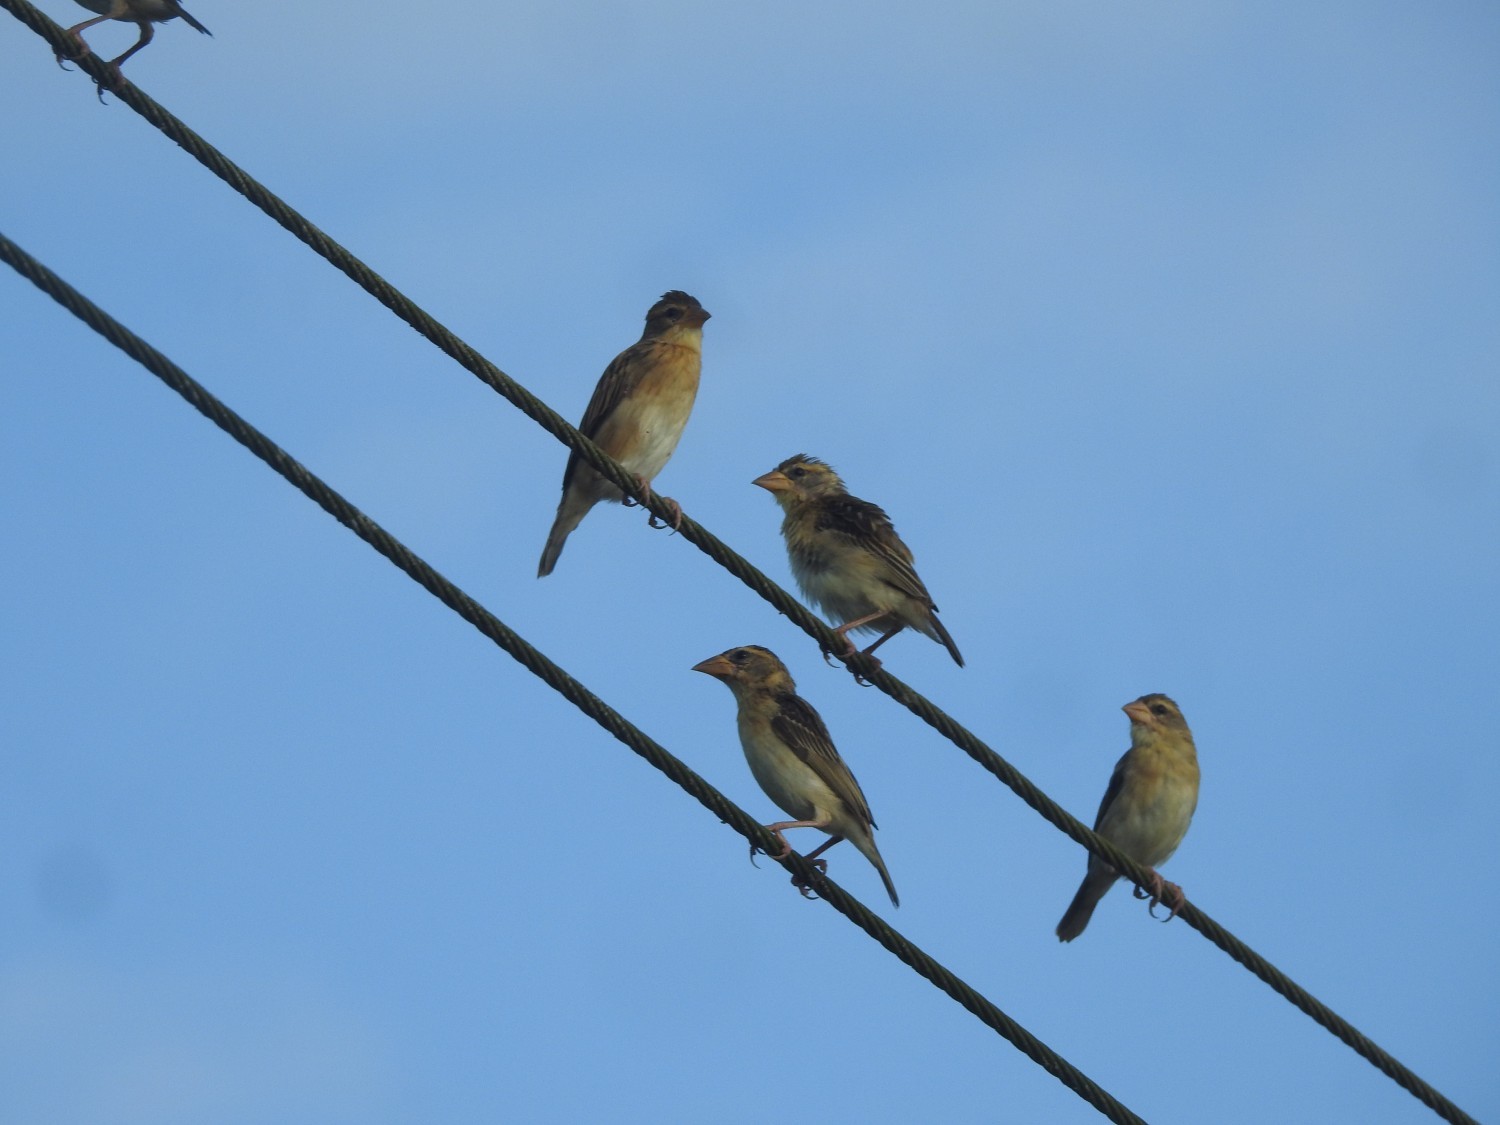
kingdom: Animalia
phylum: Chordata
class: Aves
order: Passeriformes
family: Ploceidae
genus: Ploceus
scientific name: Ploceus philippinus
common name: Baya weaver
